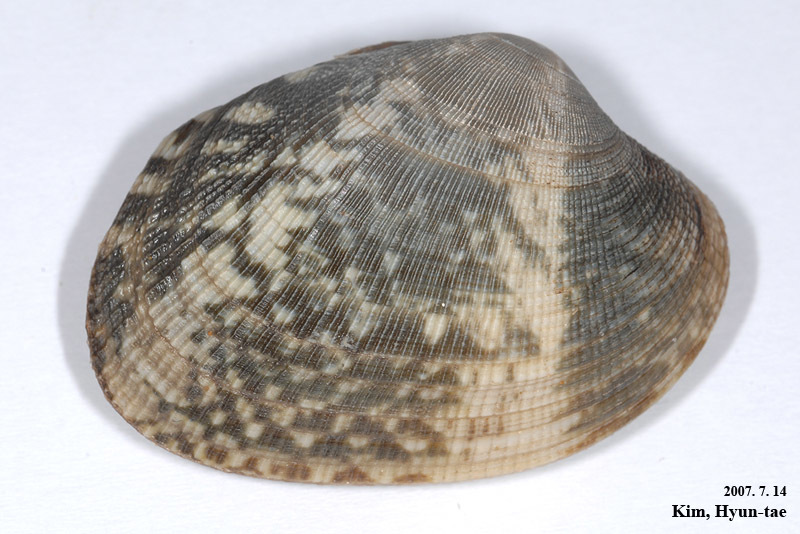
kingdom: Animalia
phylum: Mollusca
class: Bivalvia
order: Venerida
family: Veneridae
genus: Ruditapes
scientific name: Ruditapes philippinarum
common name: Manila clam
